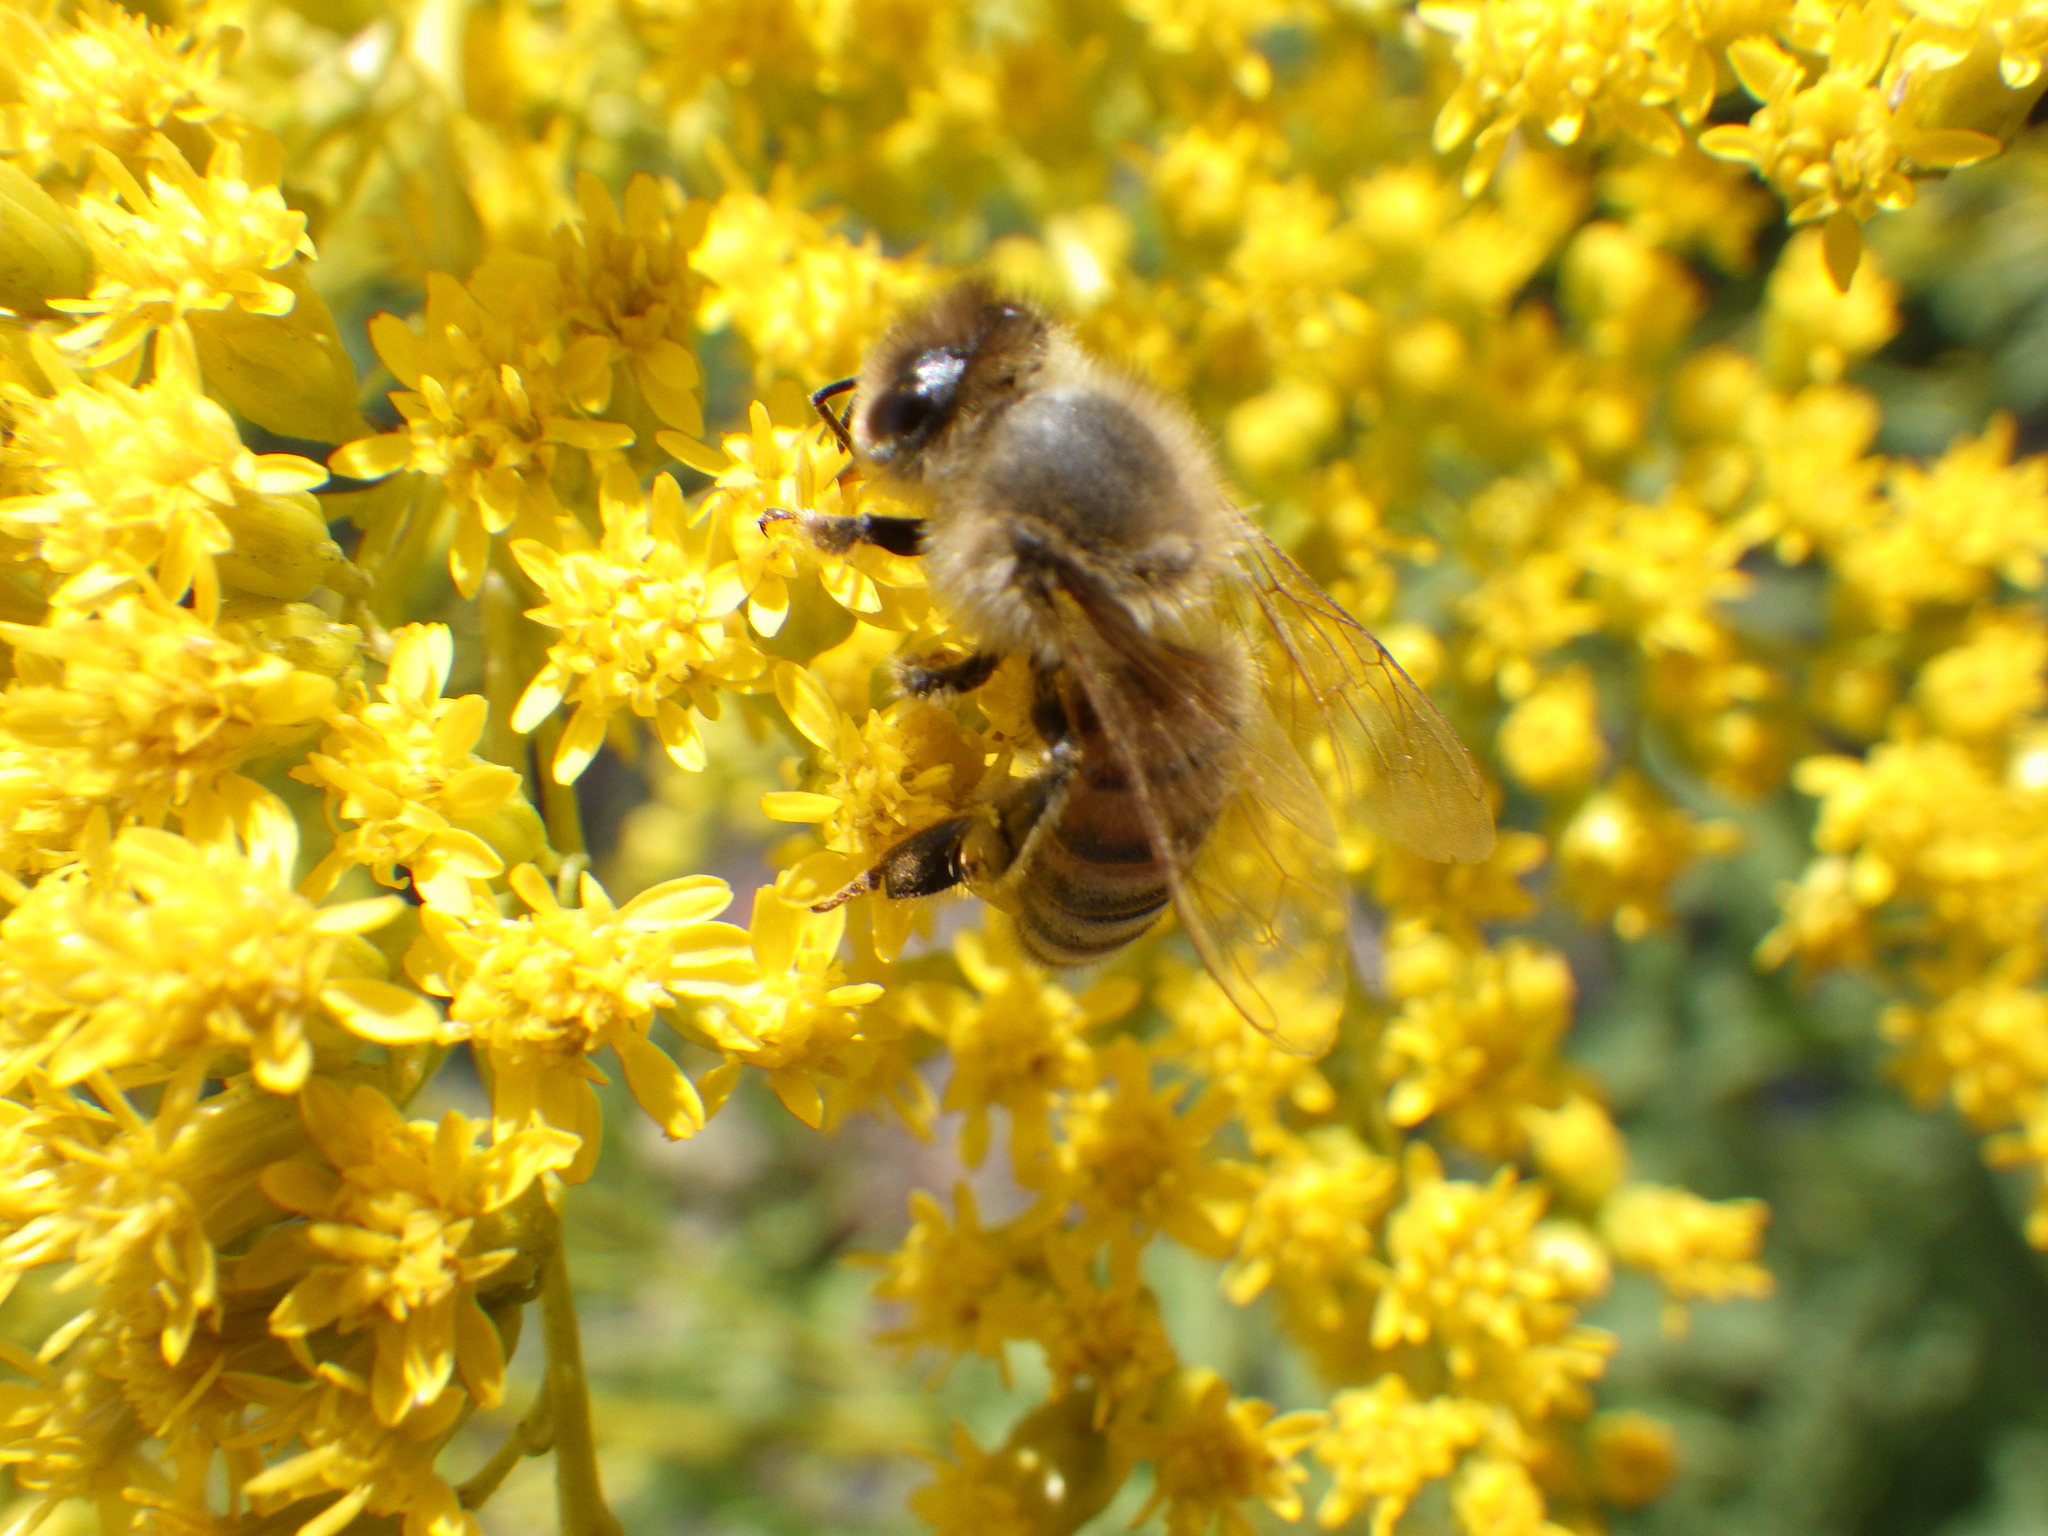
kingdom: Animalia
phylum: Arthropoda
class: Insecta
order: Hymenoptera
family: Apidae
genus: Apis
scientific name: Apis mellifera
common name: Honey bee
